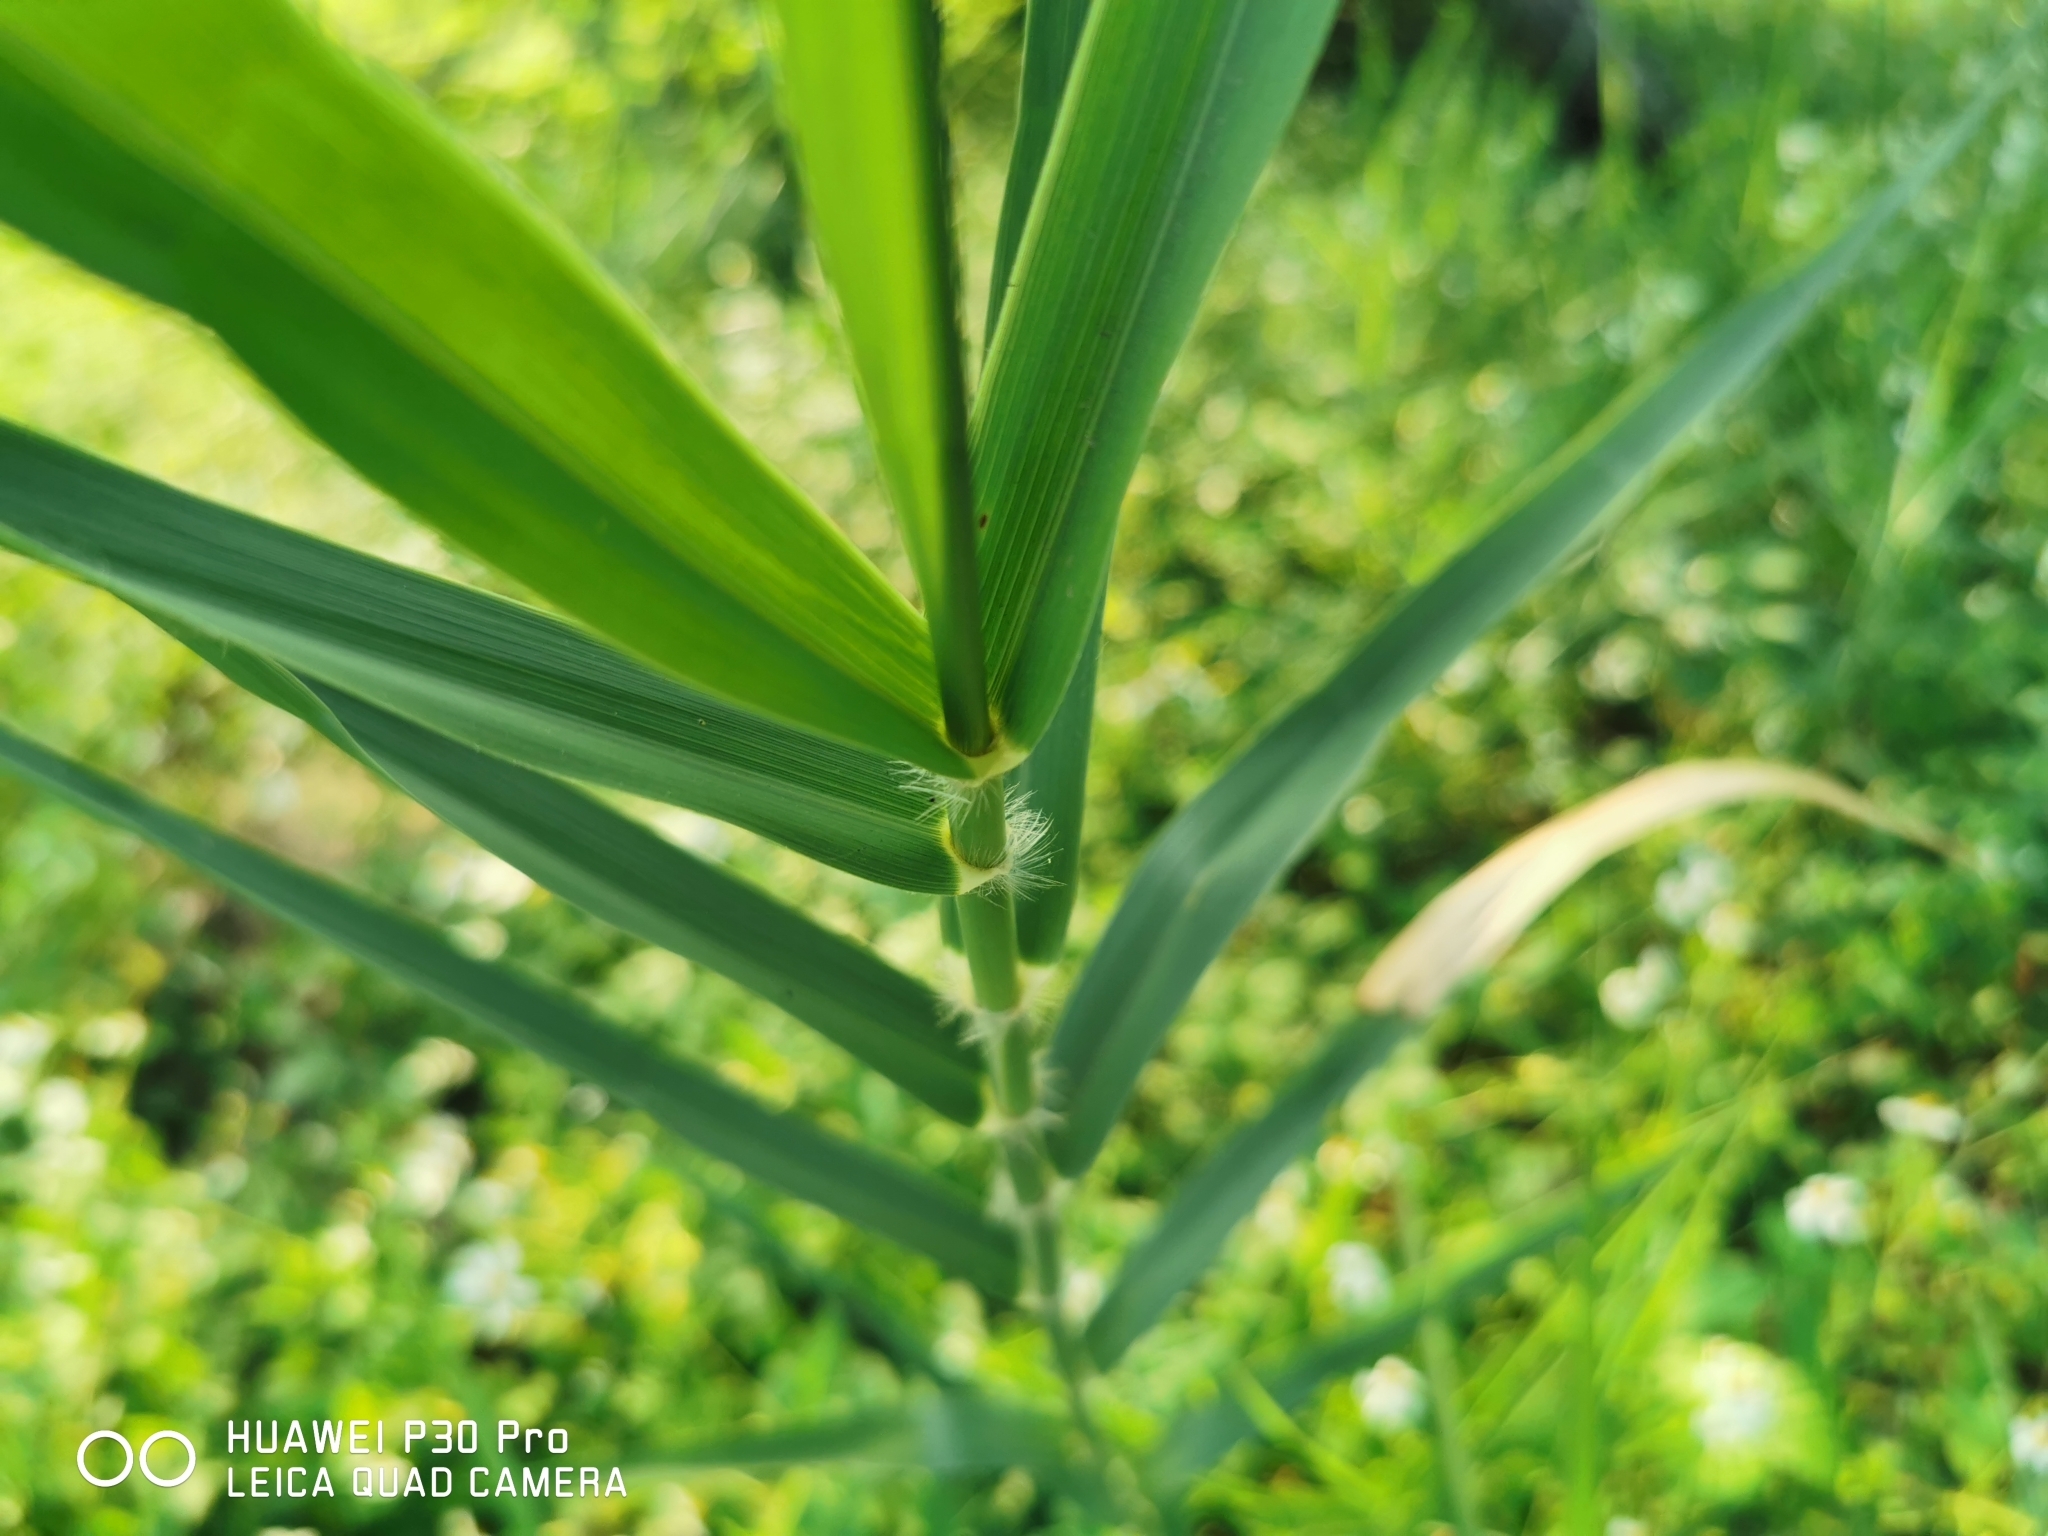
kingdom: Plantae
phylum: Tracheophyta
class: Liliopsida
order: Poales
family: Poaceae
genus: Phragmites
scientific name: Phragmites australis
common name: Common reed
